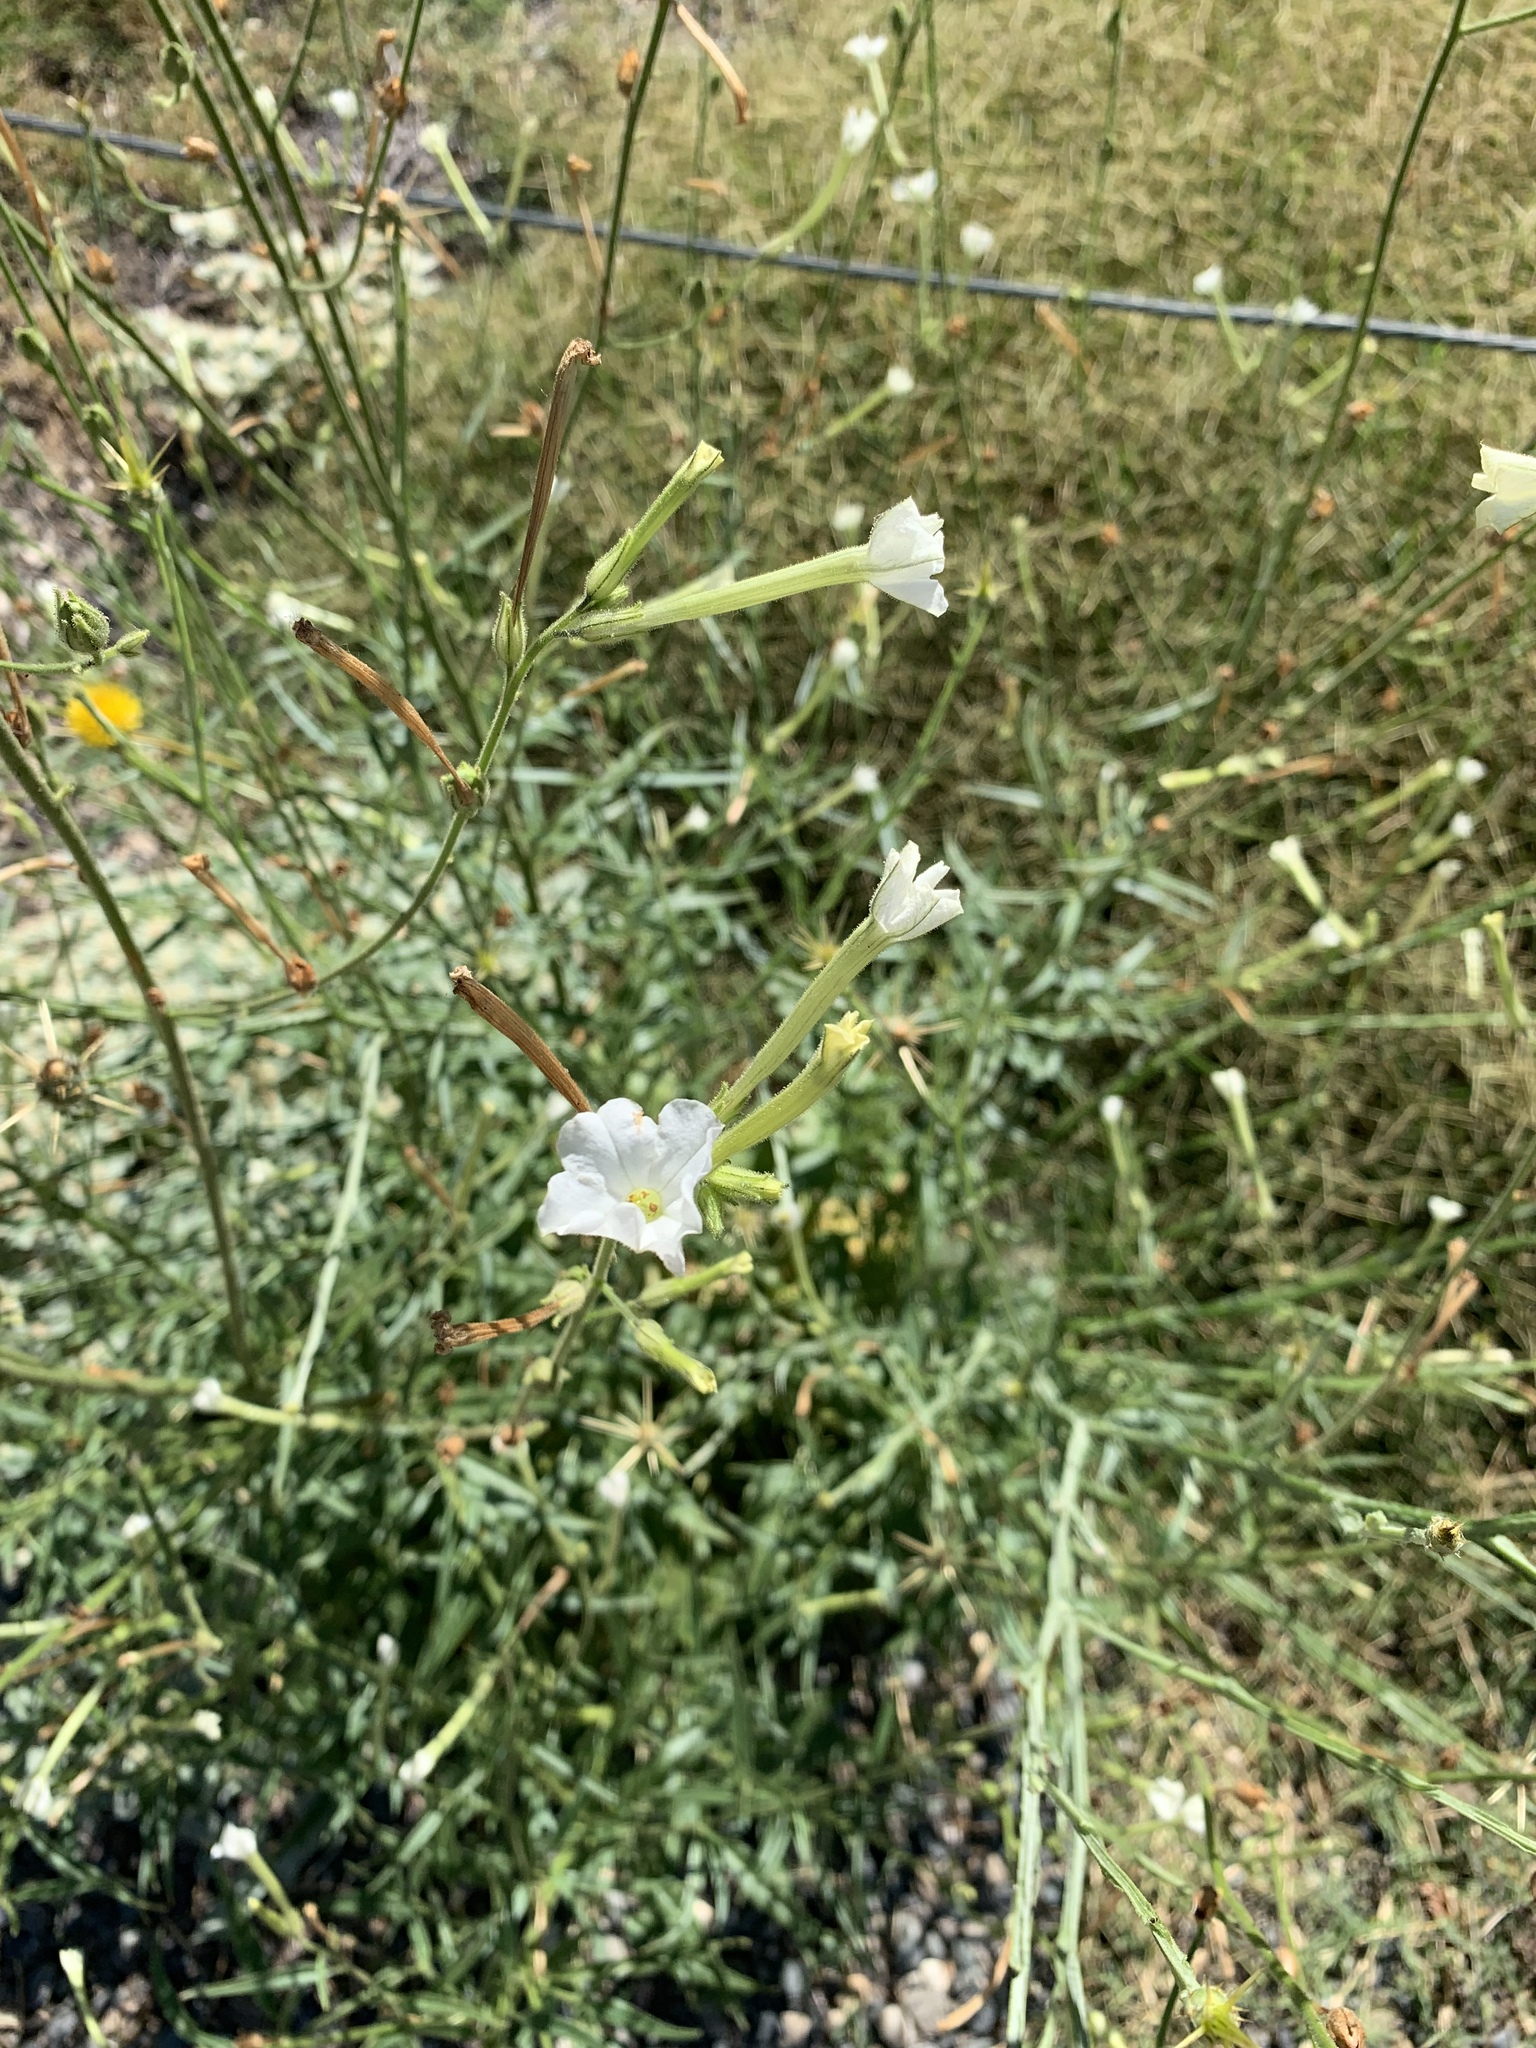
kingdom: Plantae
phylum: Tracheophyta
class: Magnoliopsida
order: Solanales
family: Solanaceae
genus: Nicotiana
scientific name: Nicotiana quadrivalvis
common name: Indian tobacco
